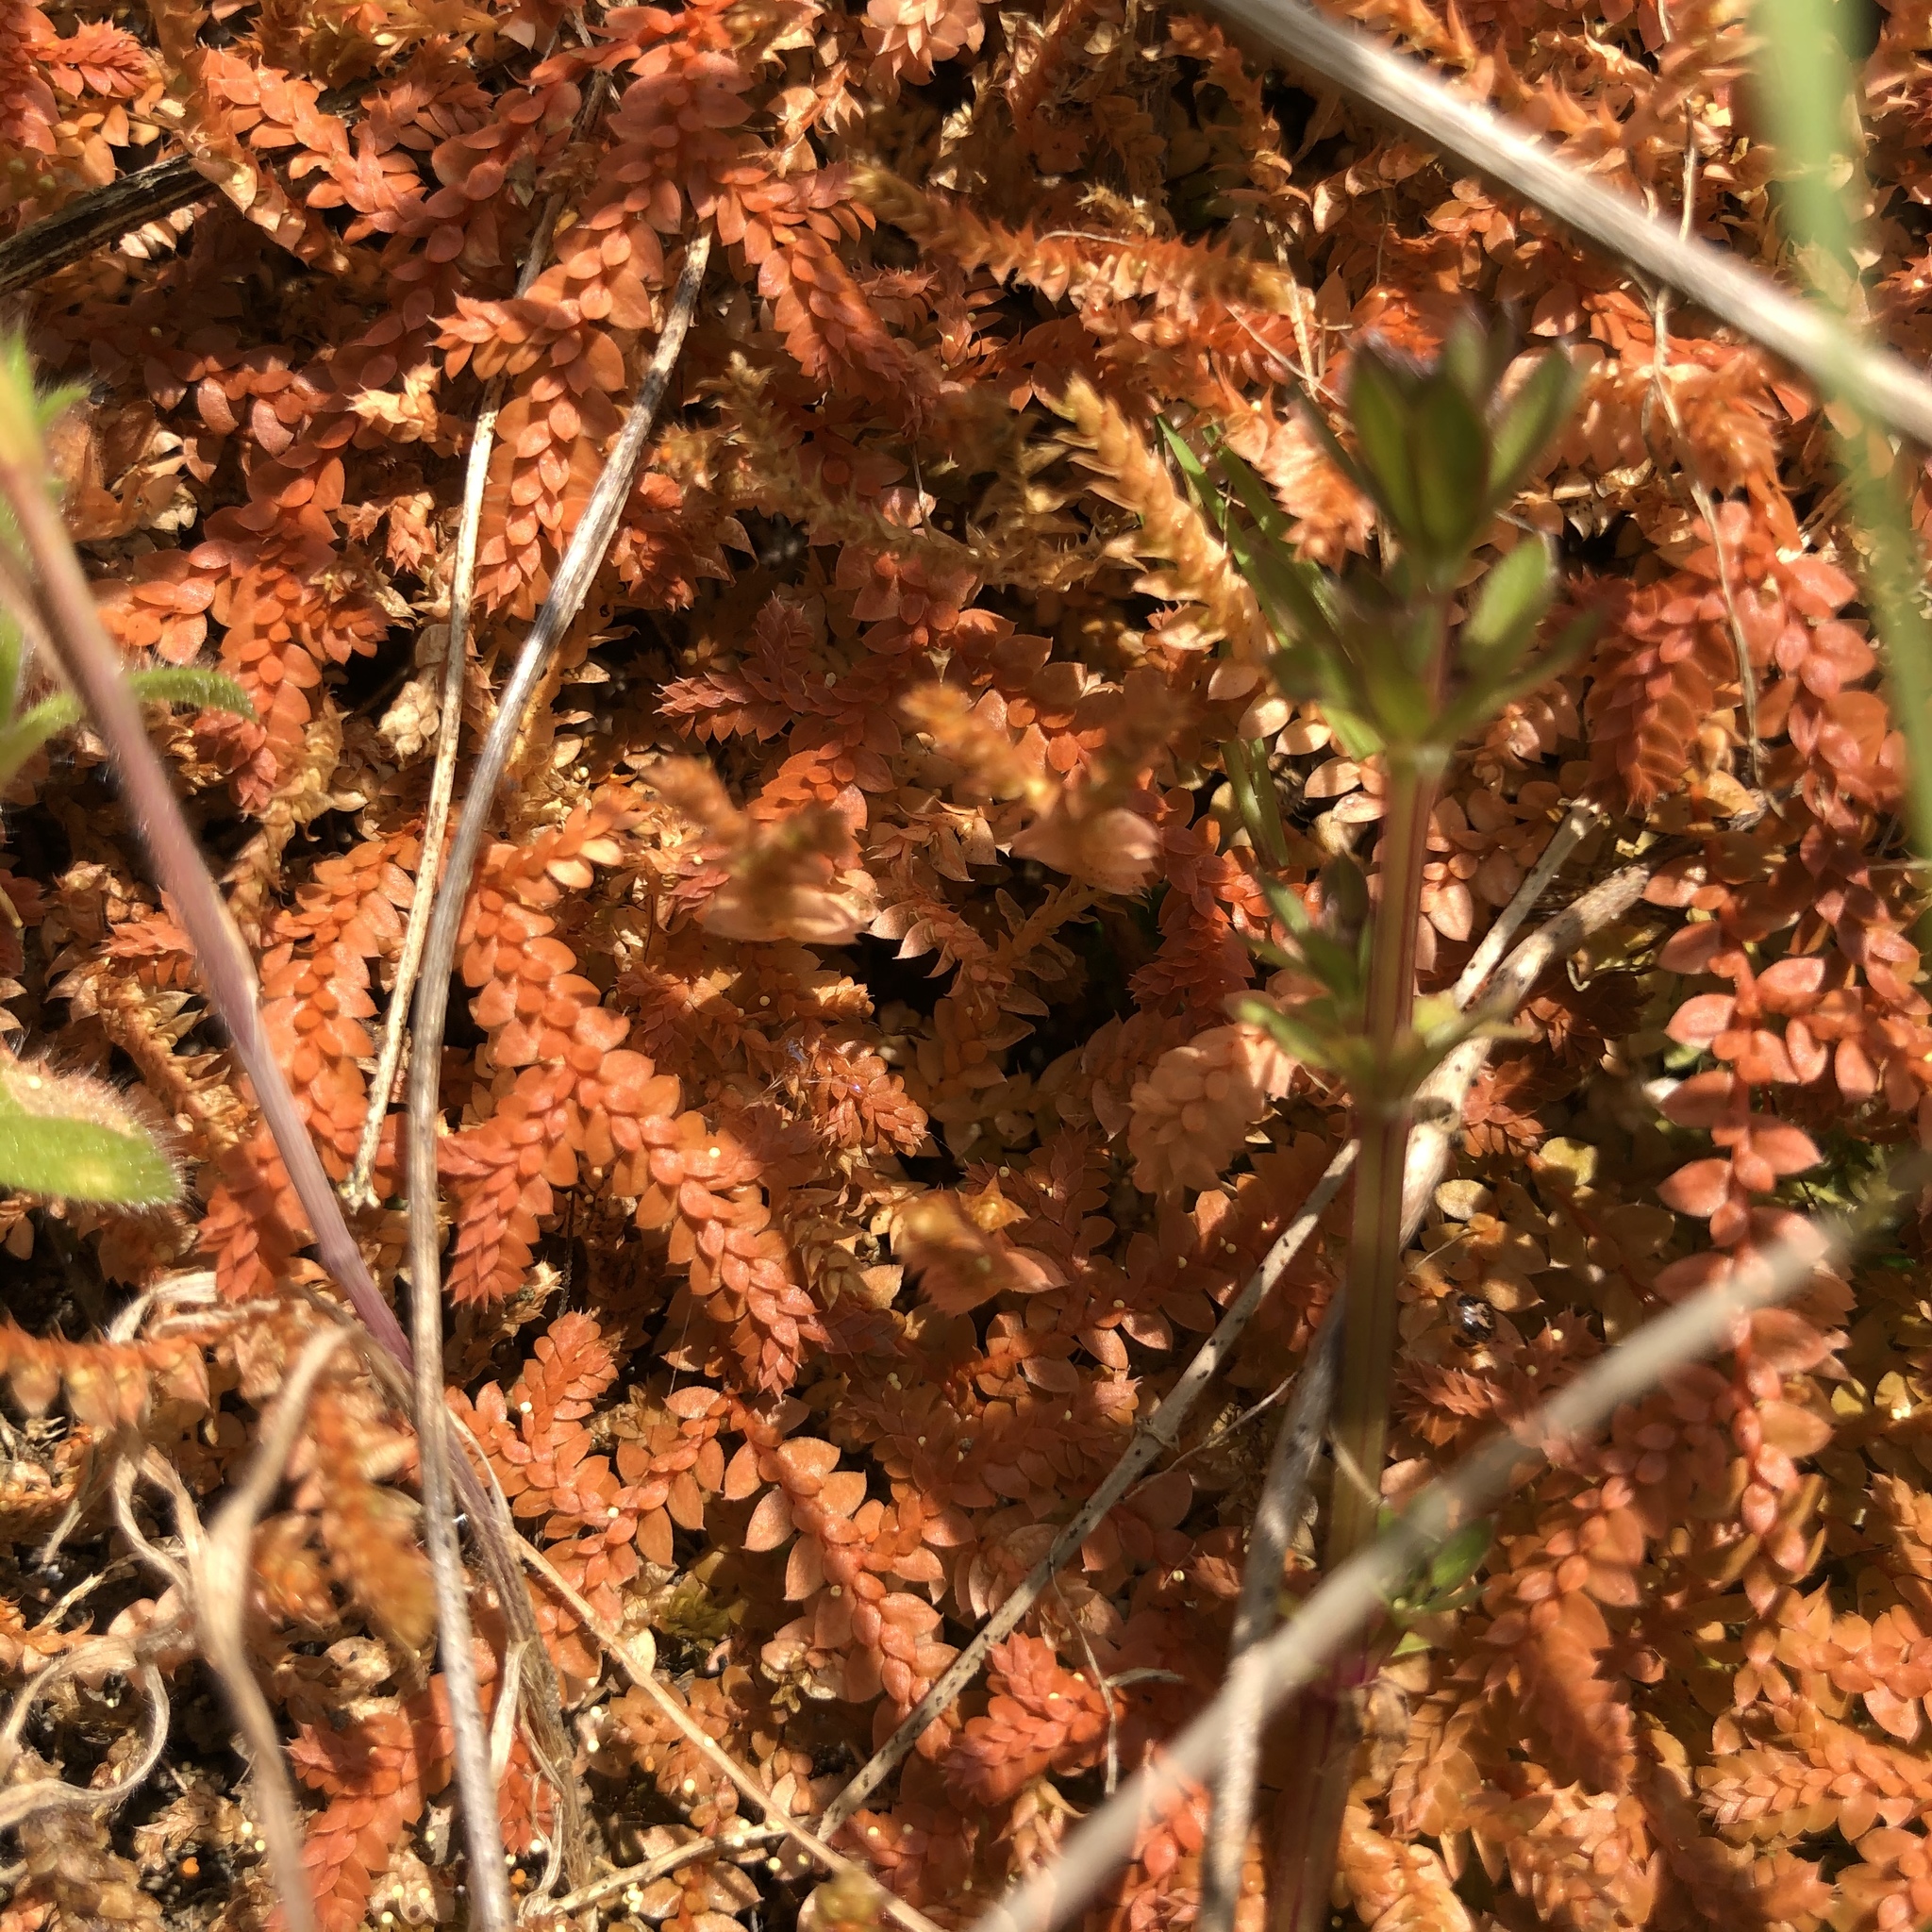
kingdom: Plantae
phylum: Tracheophyta
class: Lycopodiopsida
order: Selaginellales
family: Selaginellaceae
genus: Selaginella
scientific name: Selaginella denticulata
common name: Toothed-leaved clubmoss
